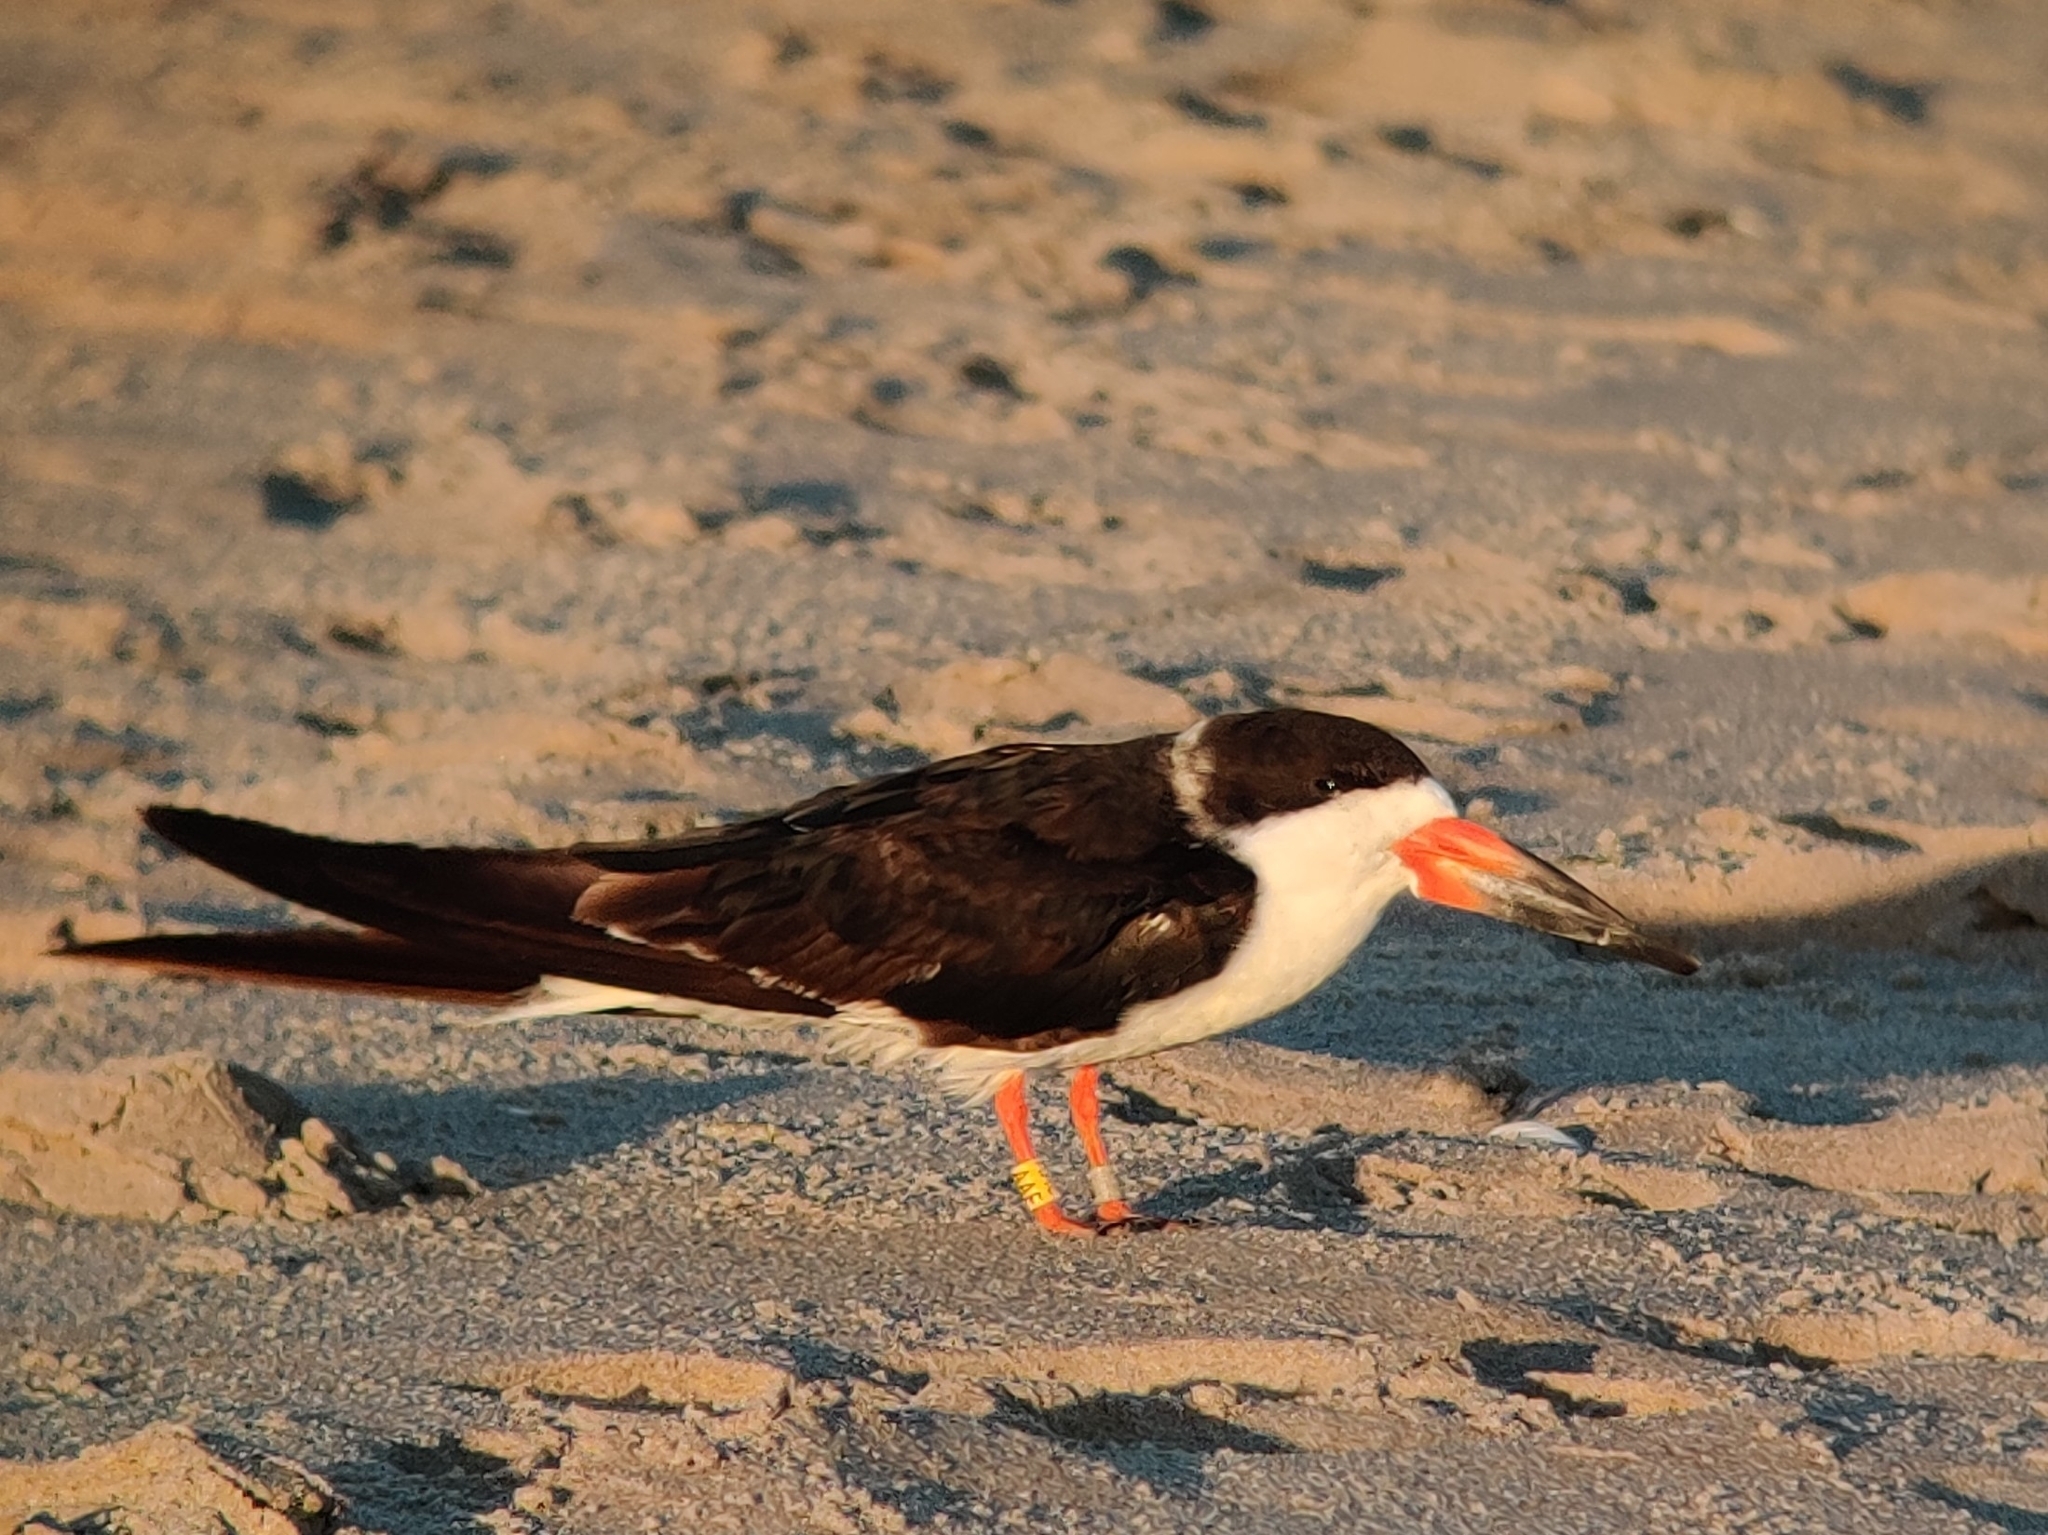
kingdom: Animalia
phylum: Chordata
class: Aves
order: Charadriiformes
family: Laridae
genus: Rynchops
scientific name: Rynchops niger
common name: Black skimmer
